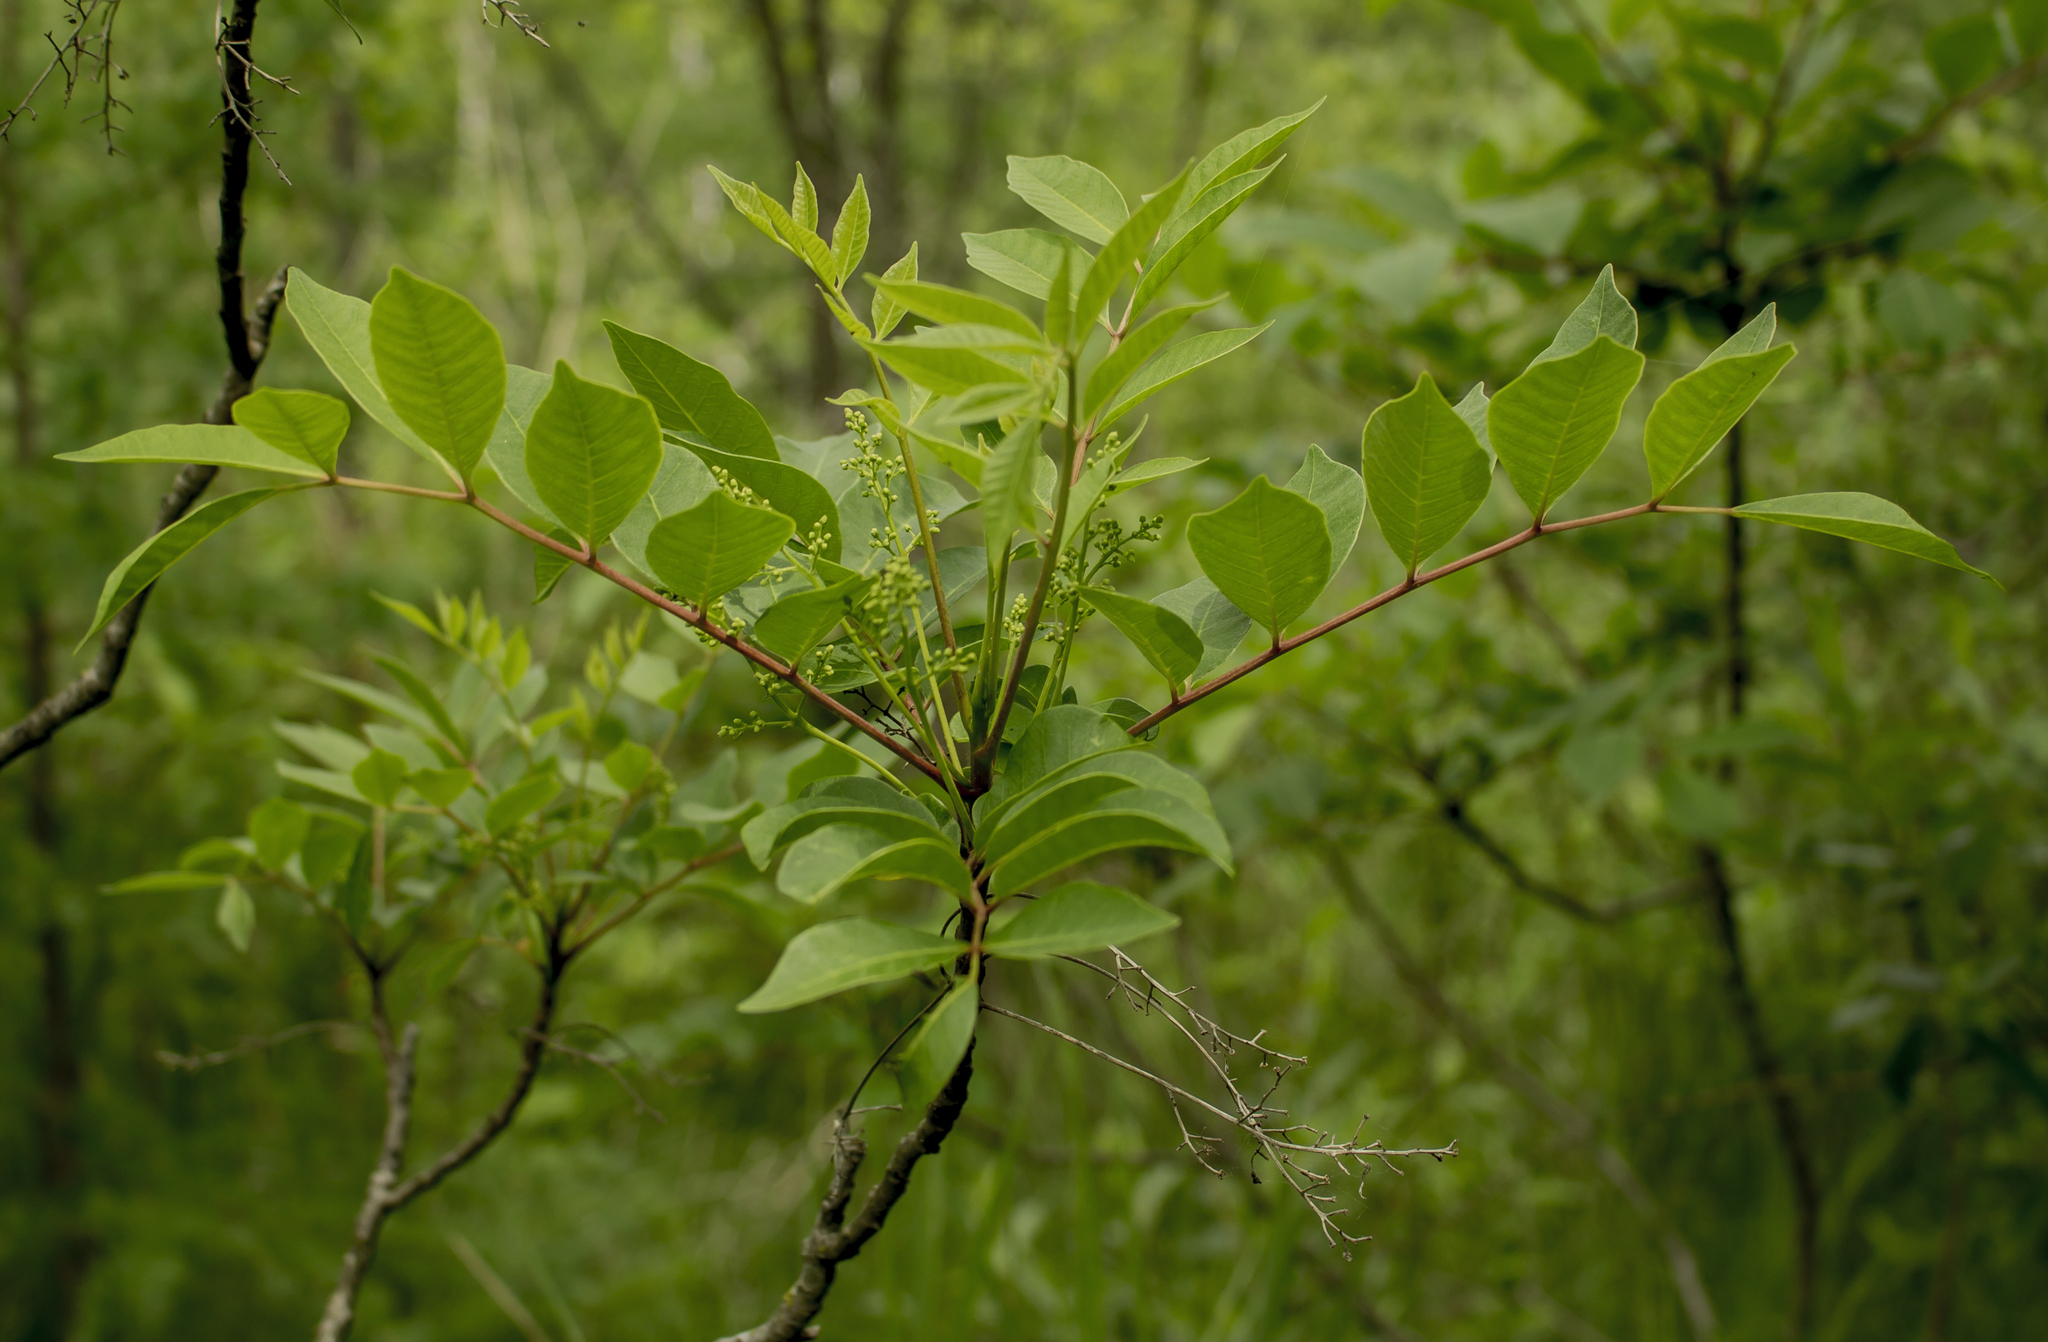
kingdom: Plantae
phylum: Tracheophyta
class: Magnoliopsida
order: Sapindales
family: Anacardiaceae
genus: Toxicodendron
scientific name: Toxicodendron vernix
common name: Poison sumac
